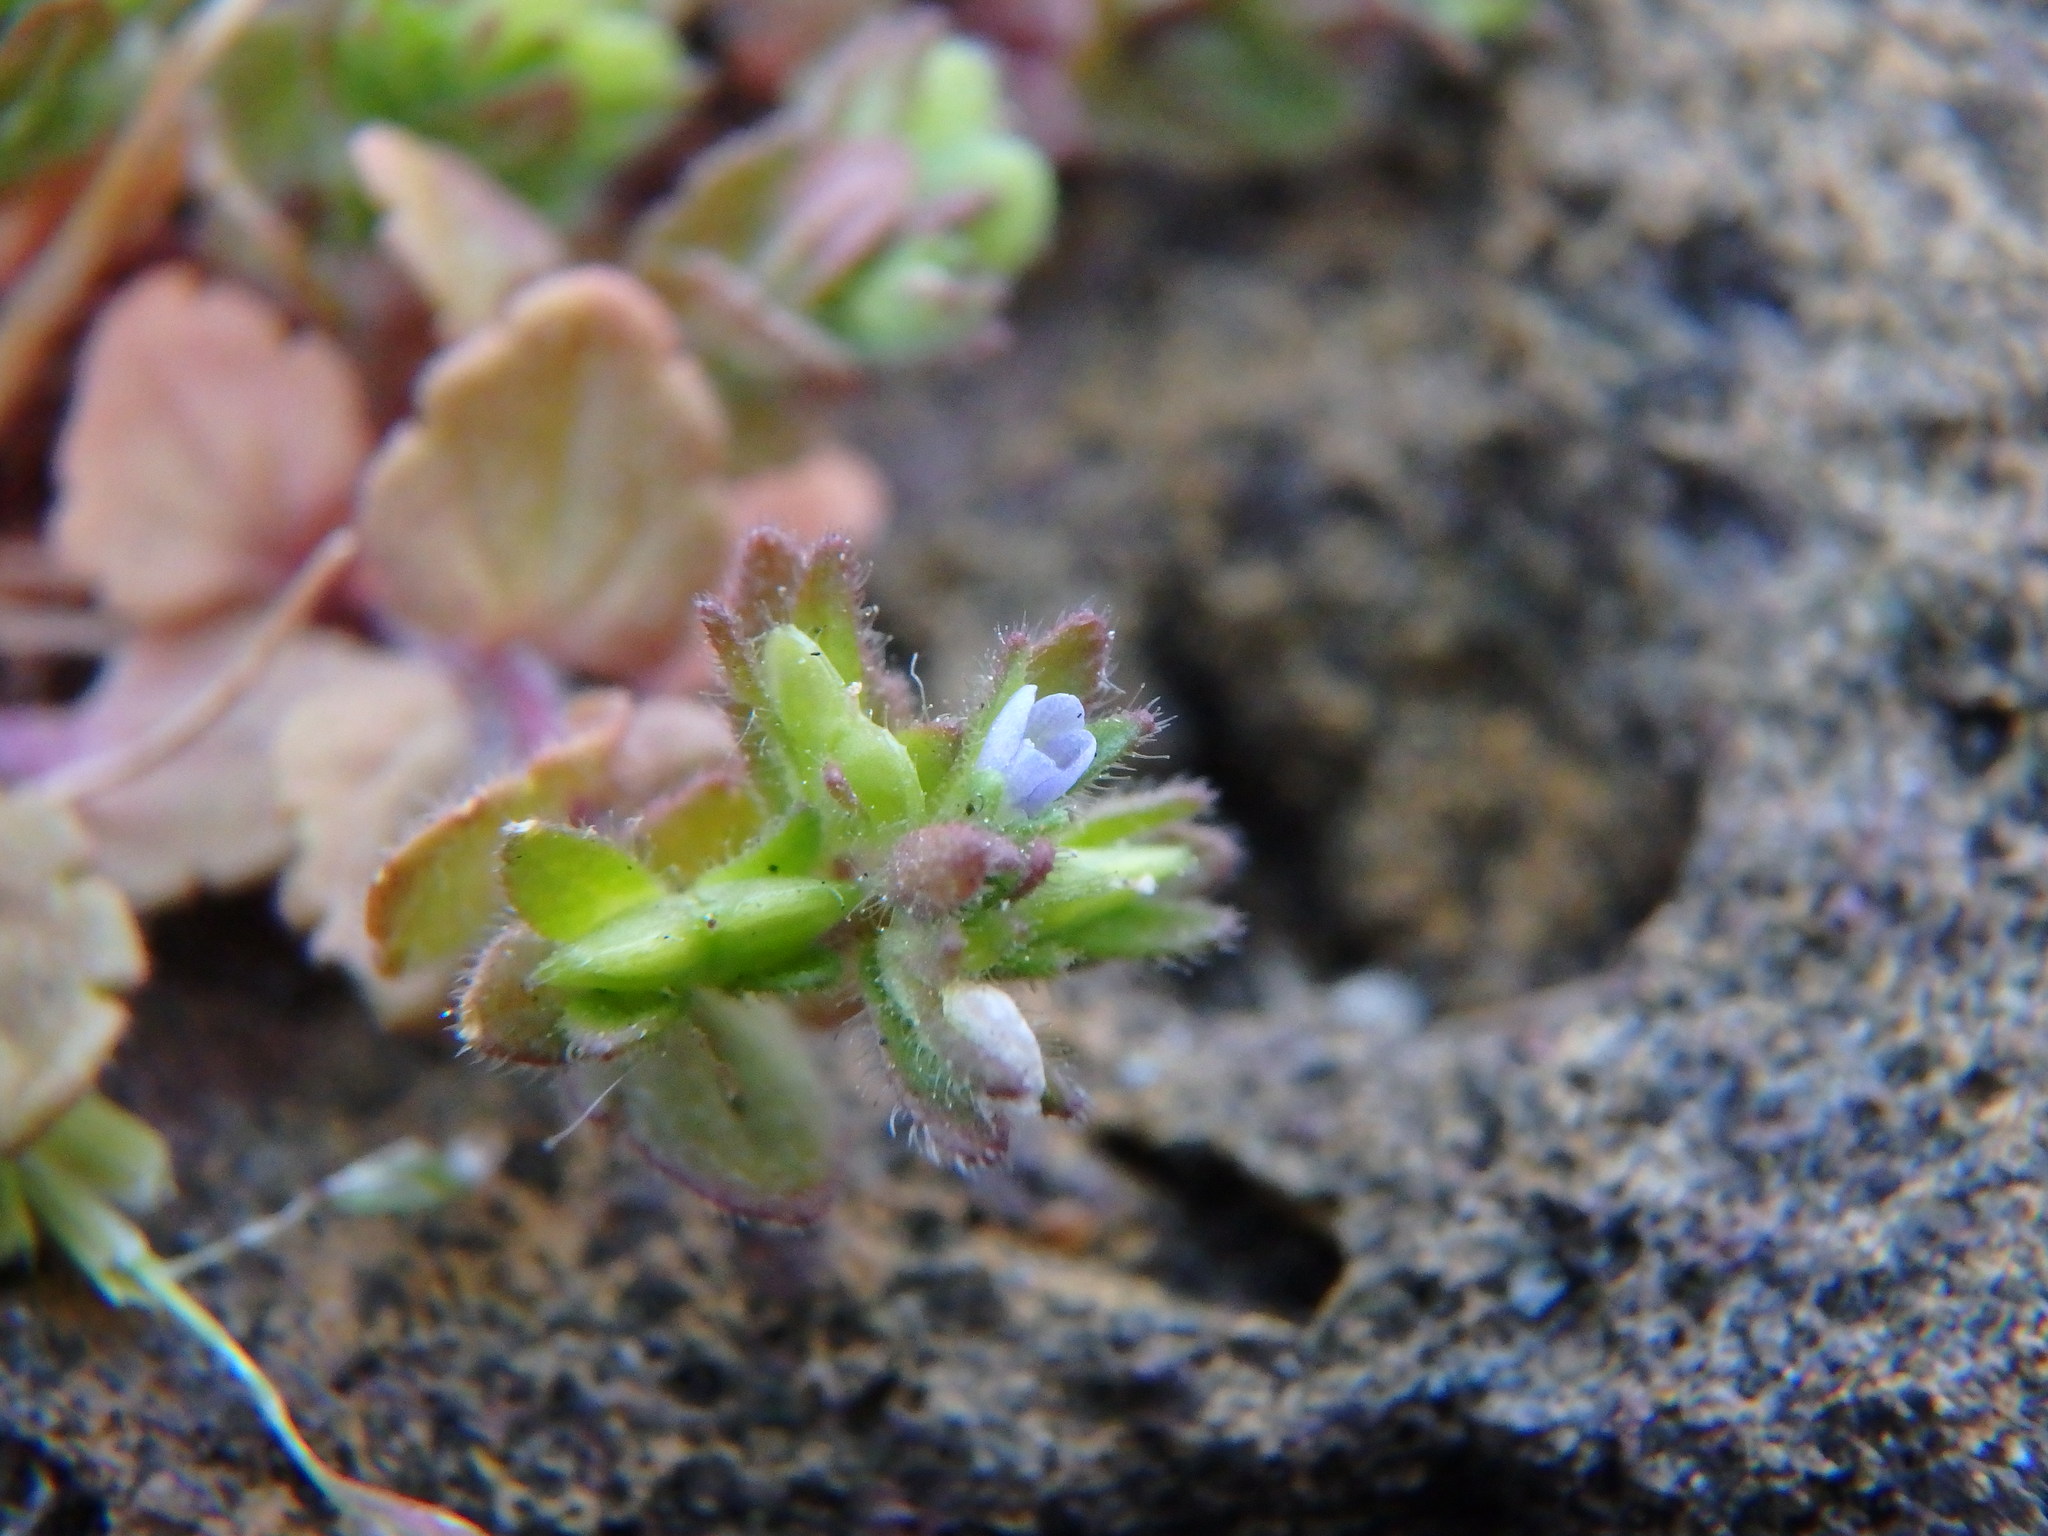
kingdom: Plantae
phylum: Tracheophyta
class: Magnoliopsida
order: Lamiales
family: Plantaginaceae
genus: Veronica
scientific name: Veronica arvensis
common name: Corn speedwell
